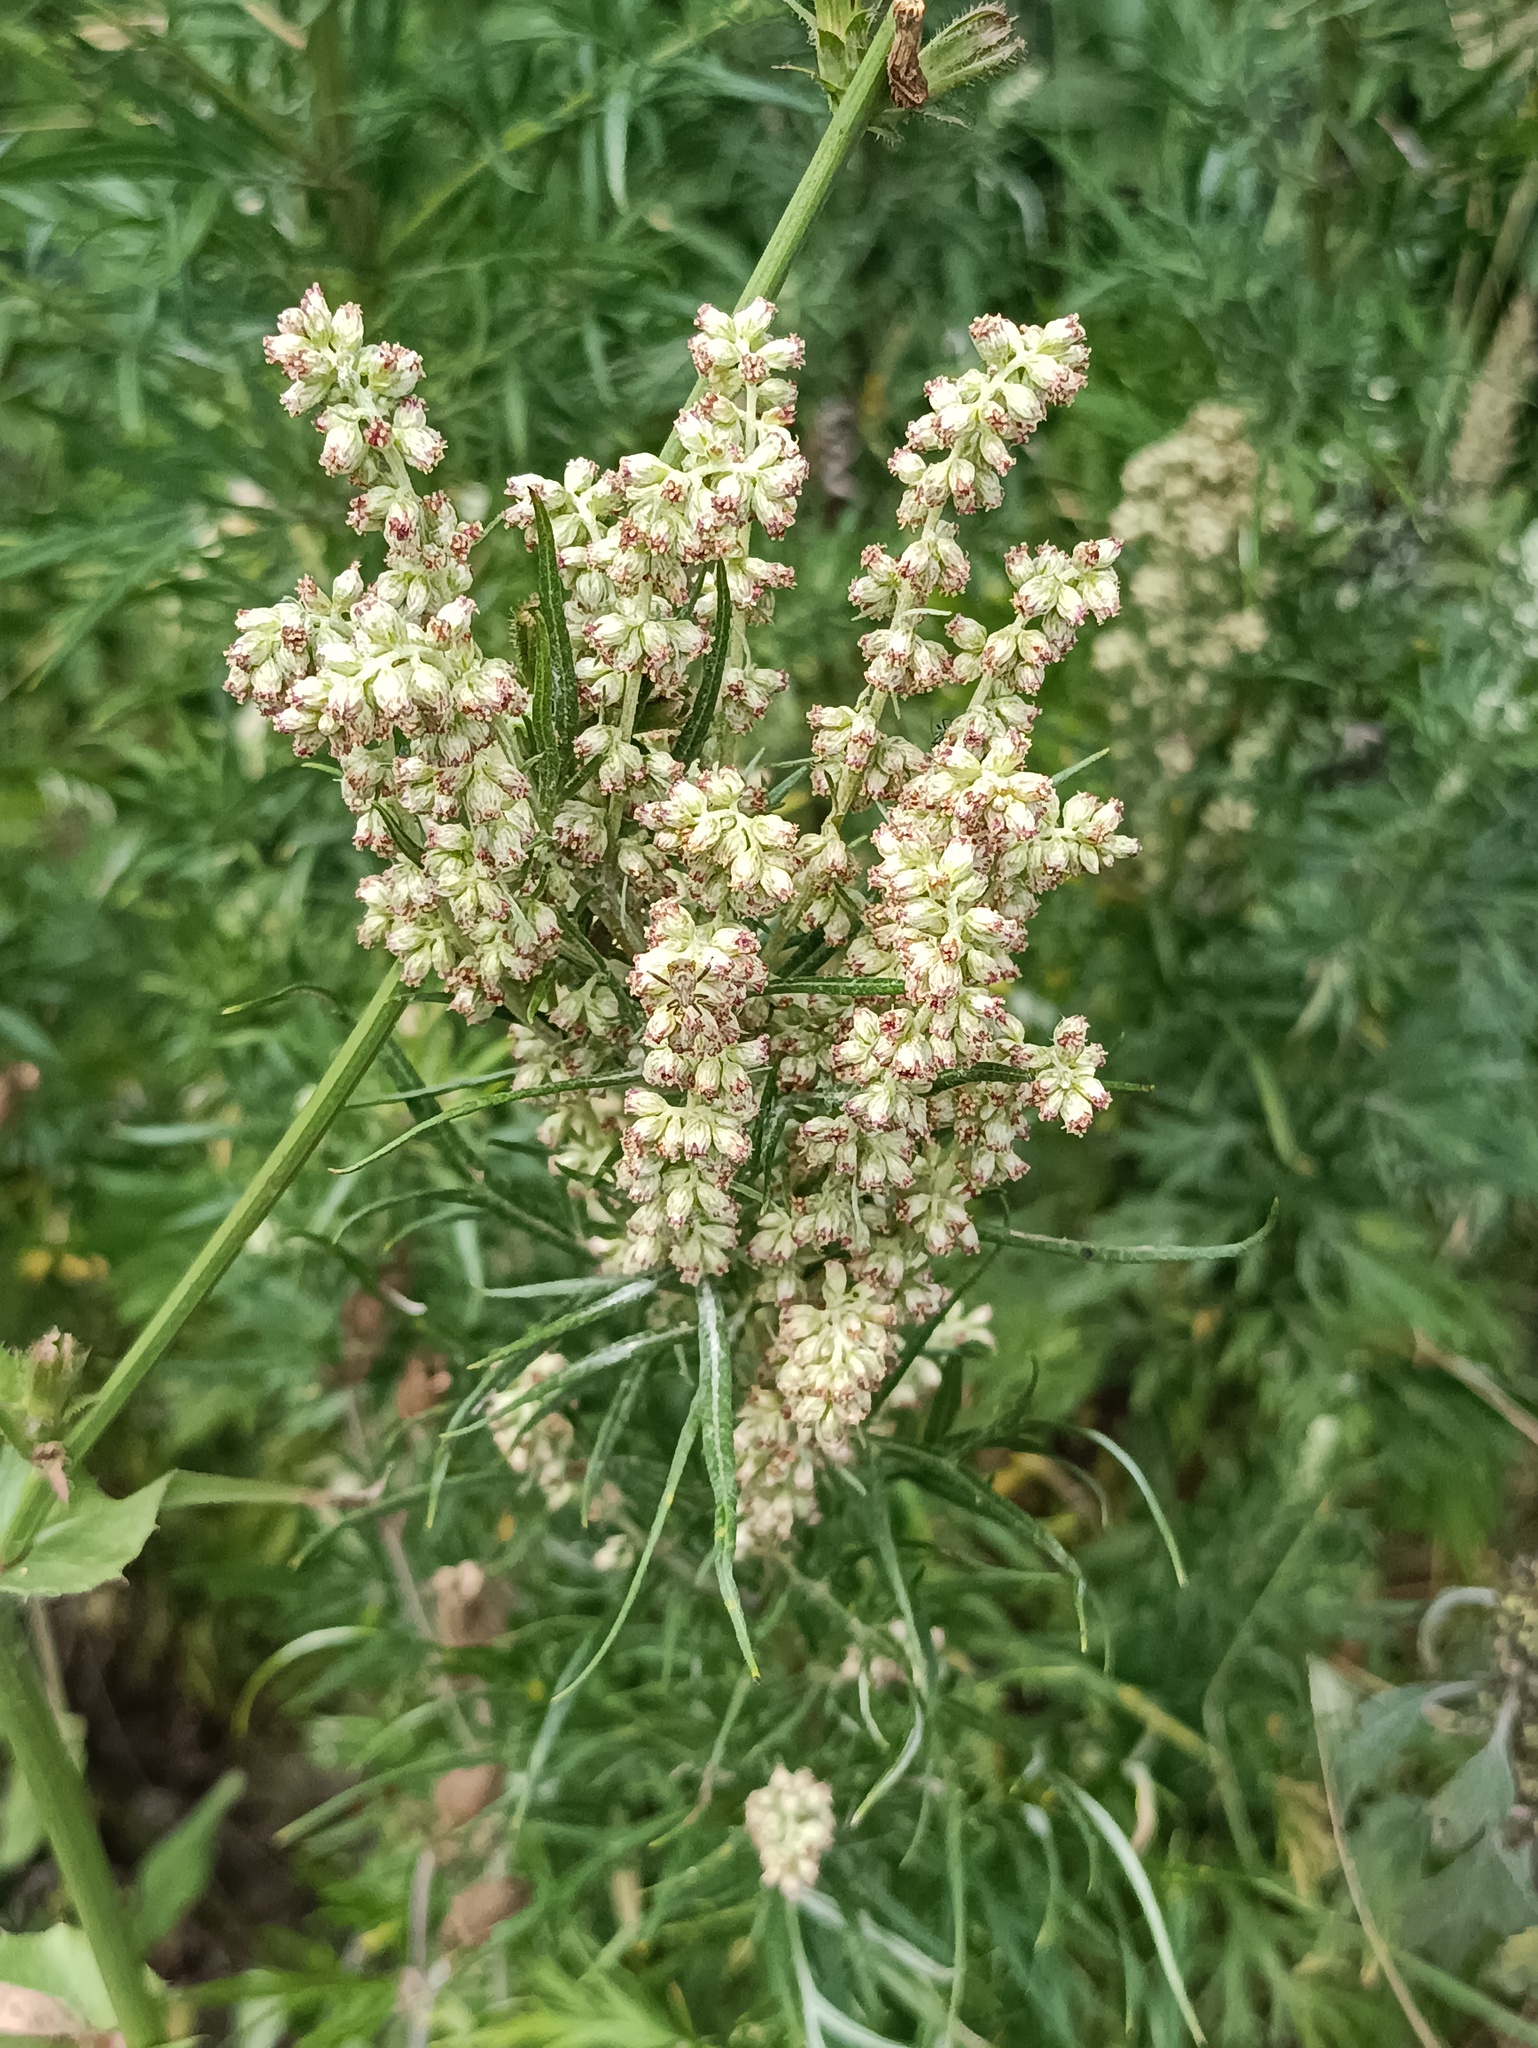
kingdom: Plantae
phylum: Tracheophyta
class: Magnoliopsida
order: Asterales
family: Asteraceae
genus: Artemisia
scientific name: Artemisia vulgaris
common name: Mugwort
